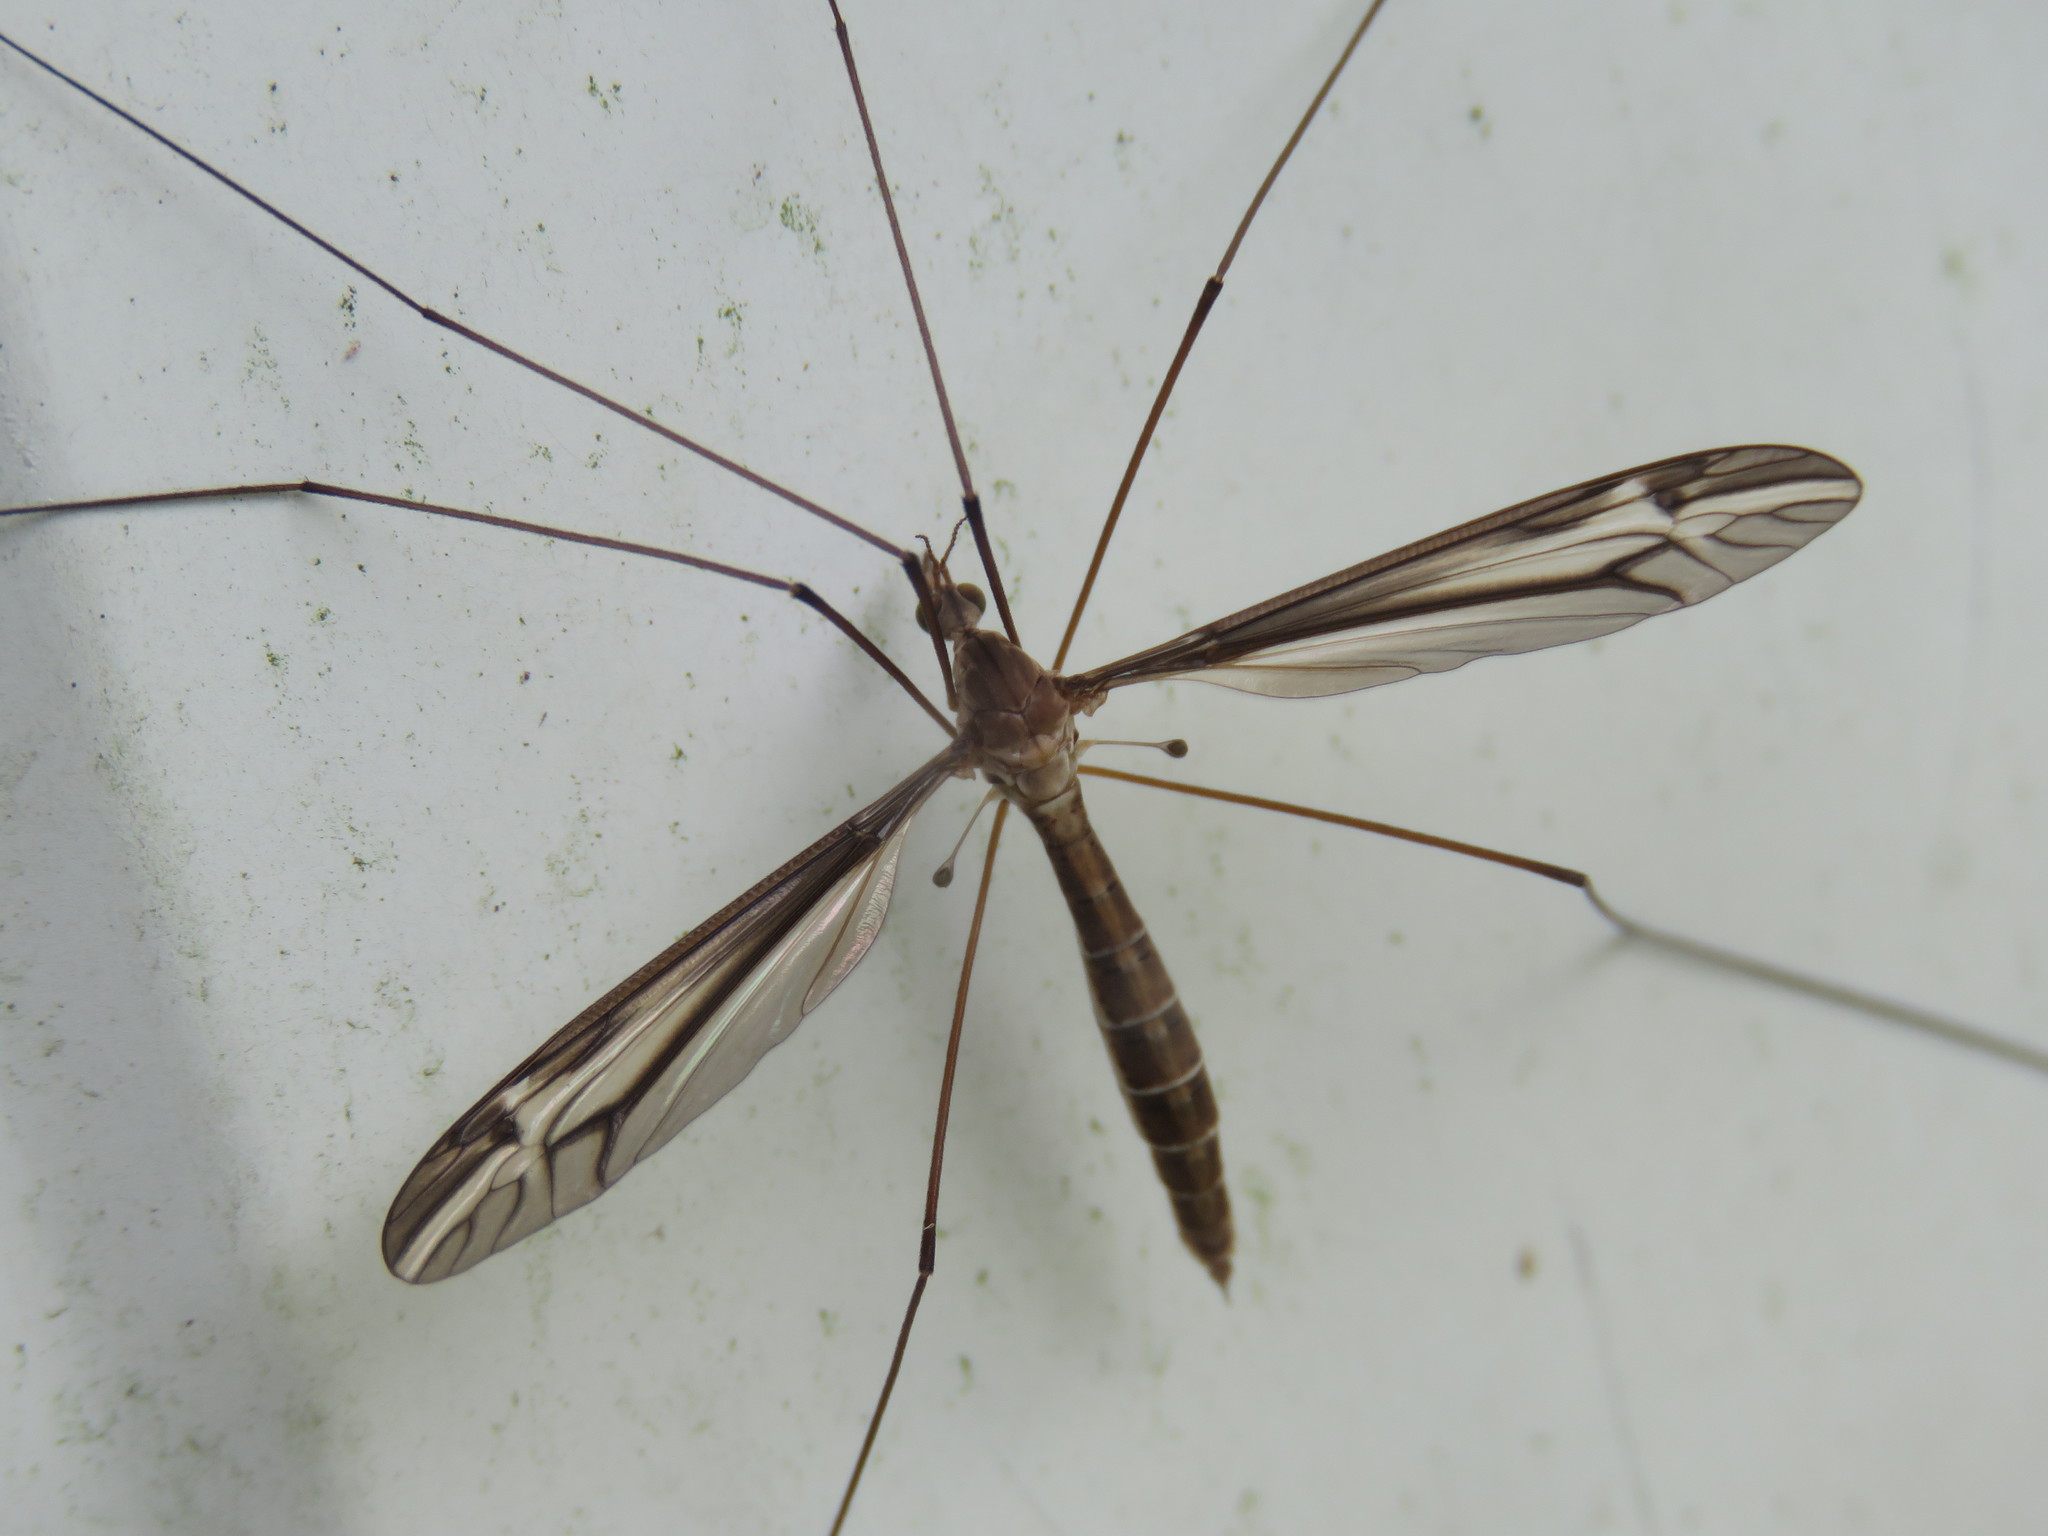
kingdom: Animalia
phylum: Arthropoda
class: Insecta
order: Diptera
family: Tipulidae
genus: Tipula
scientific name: Tipula furca
